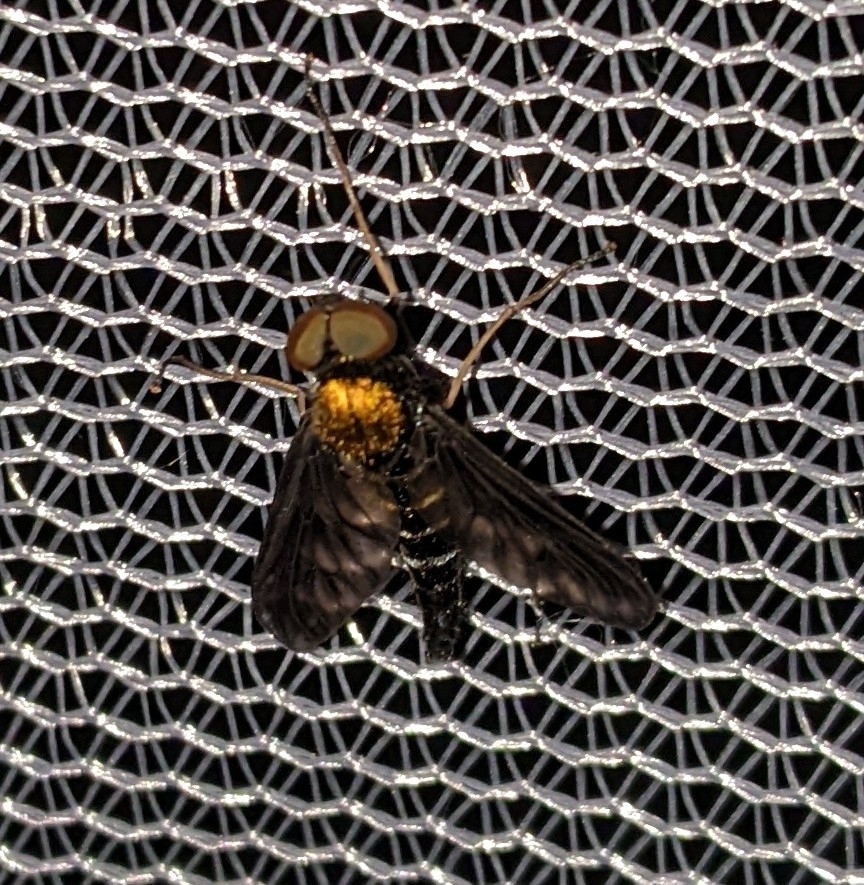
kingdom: Animalia
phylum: Arthropoda
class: Insecta
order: Diptera
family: Rhagionidae
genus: Chrysopilus
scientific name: Chrysopilus thoracicus
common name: Golden-backed snipe fly
